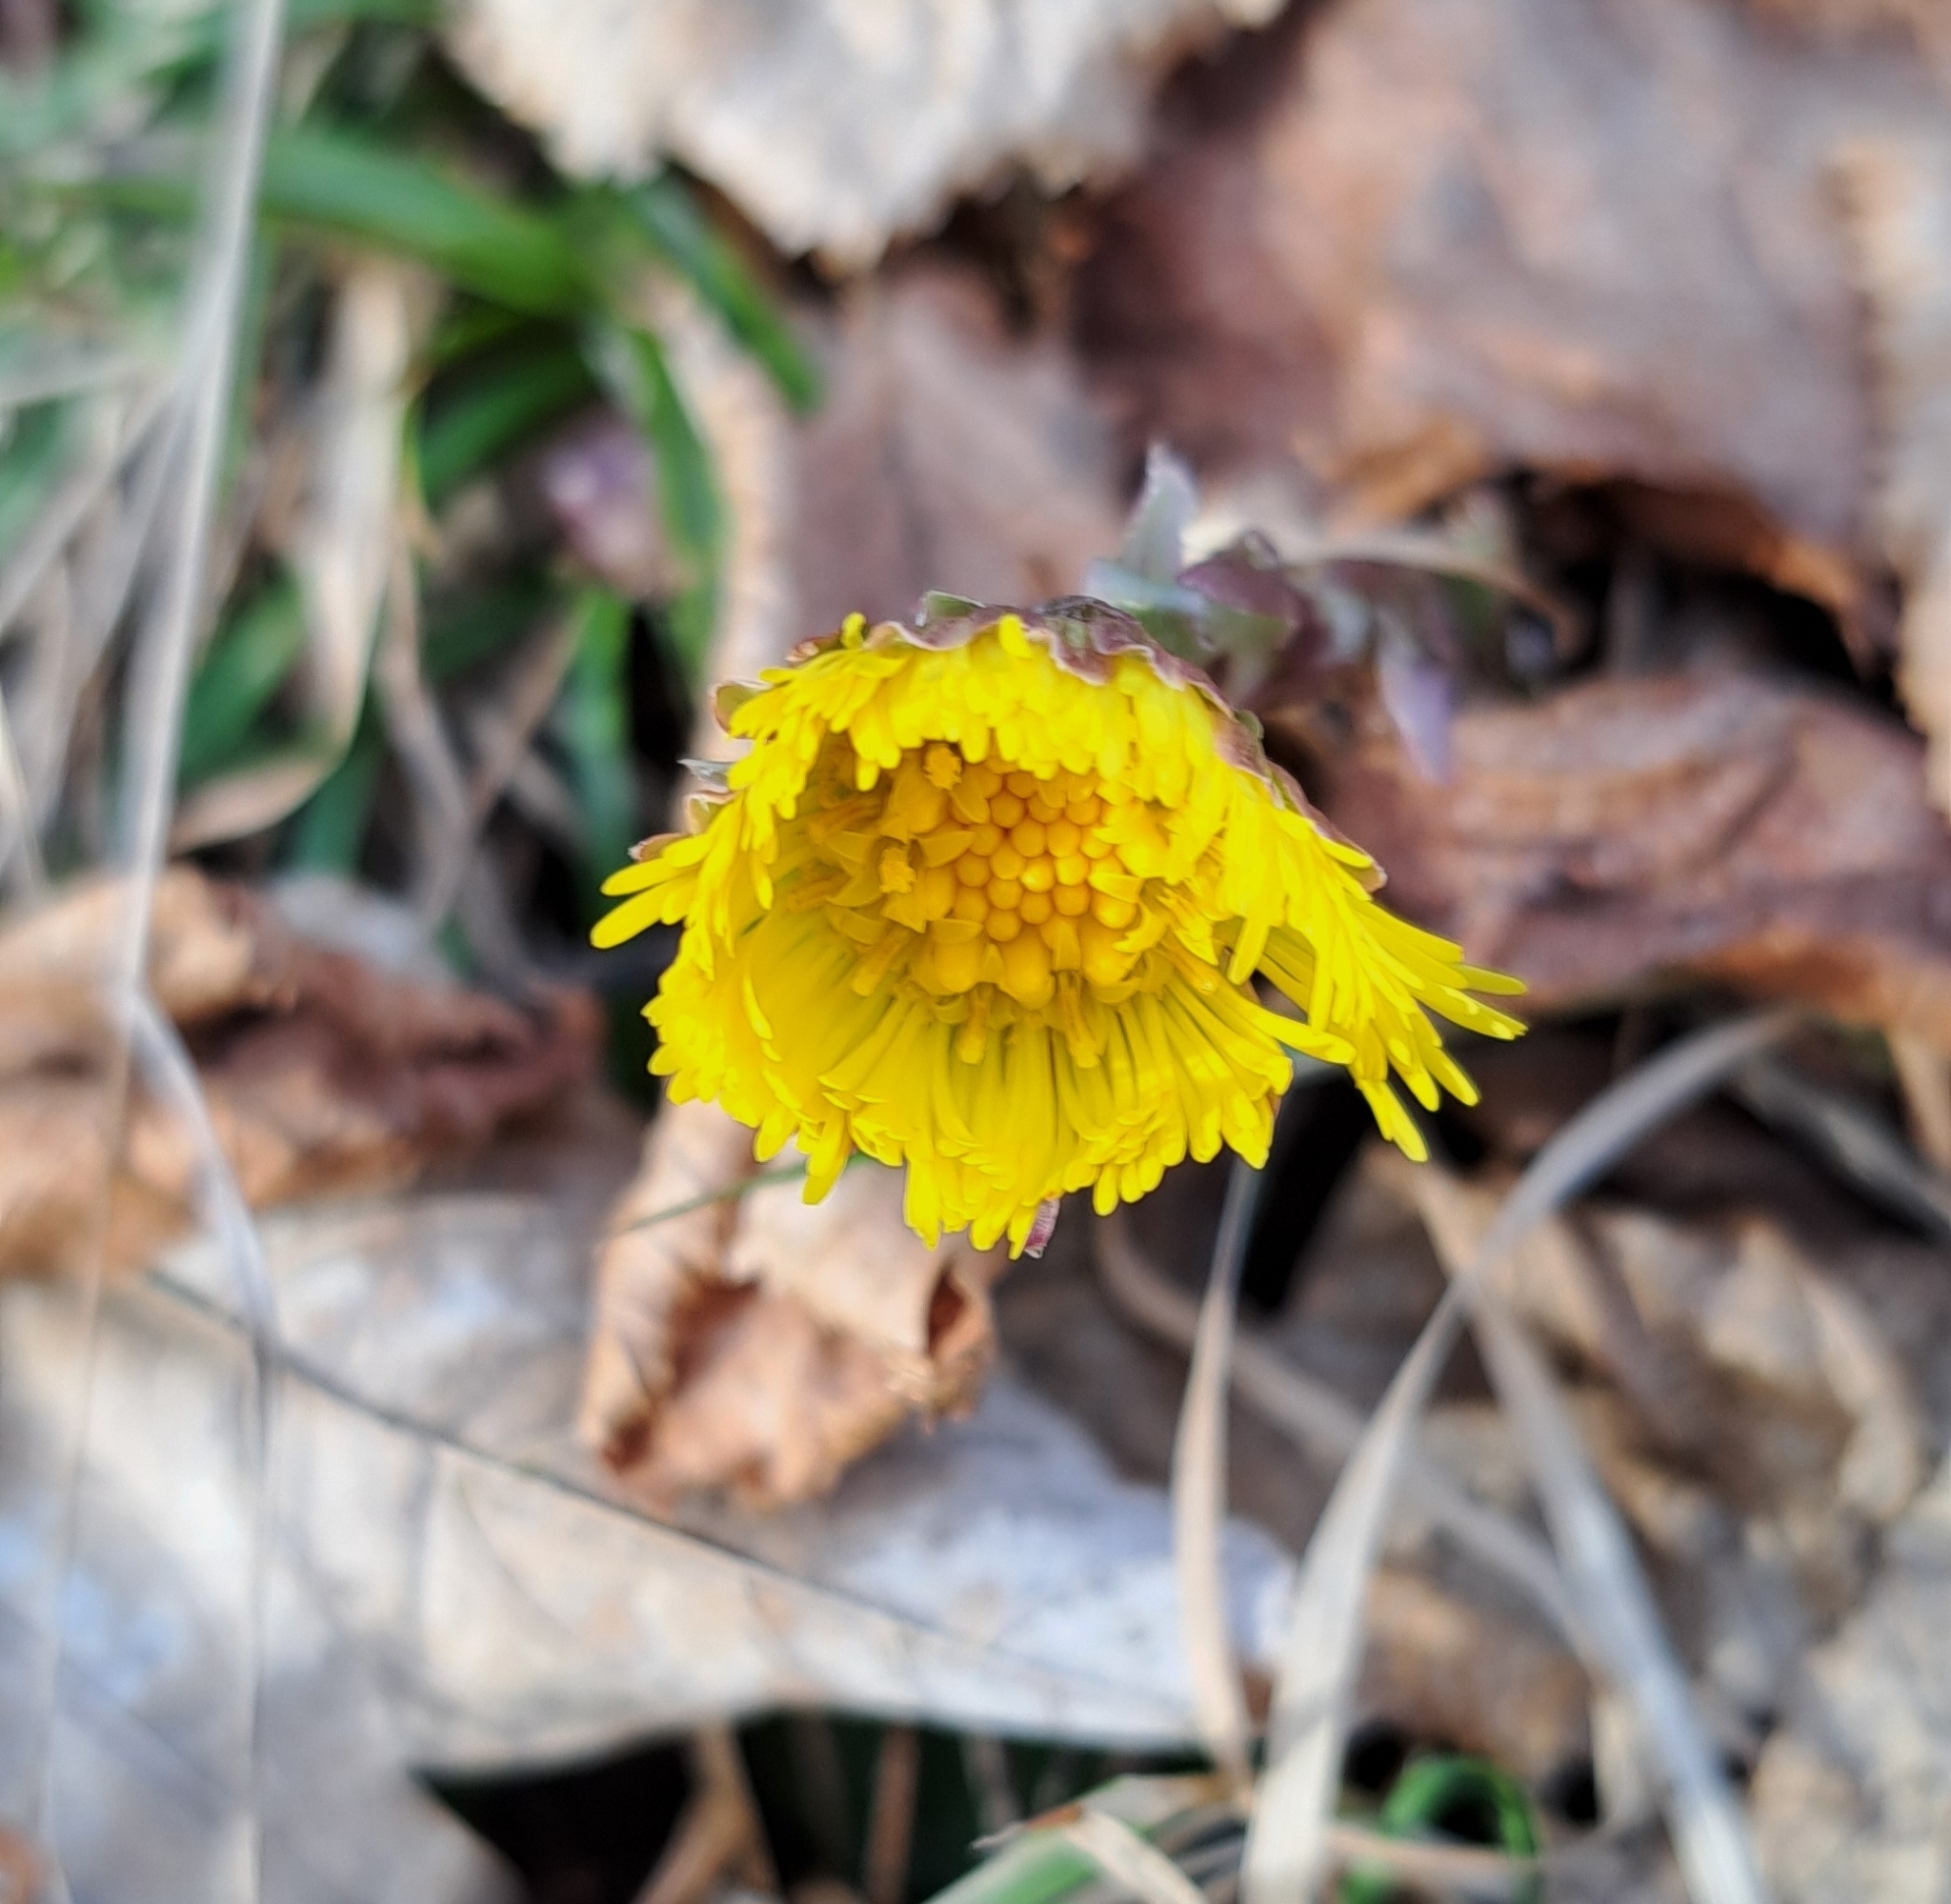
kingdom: Plantae
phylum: Tracheophyta
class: Magnoliopsida
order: Asterales
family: Asteraceae
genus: Tussilago
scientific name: Tussilago farfara
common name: Coltsfoot
